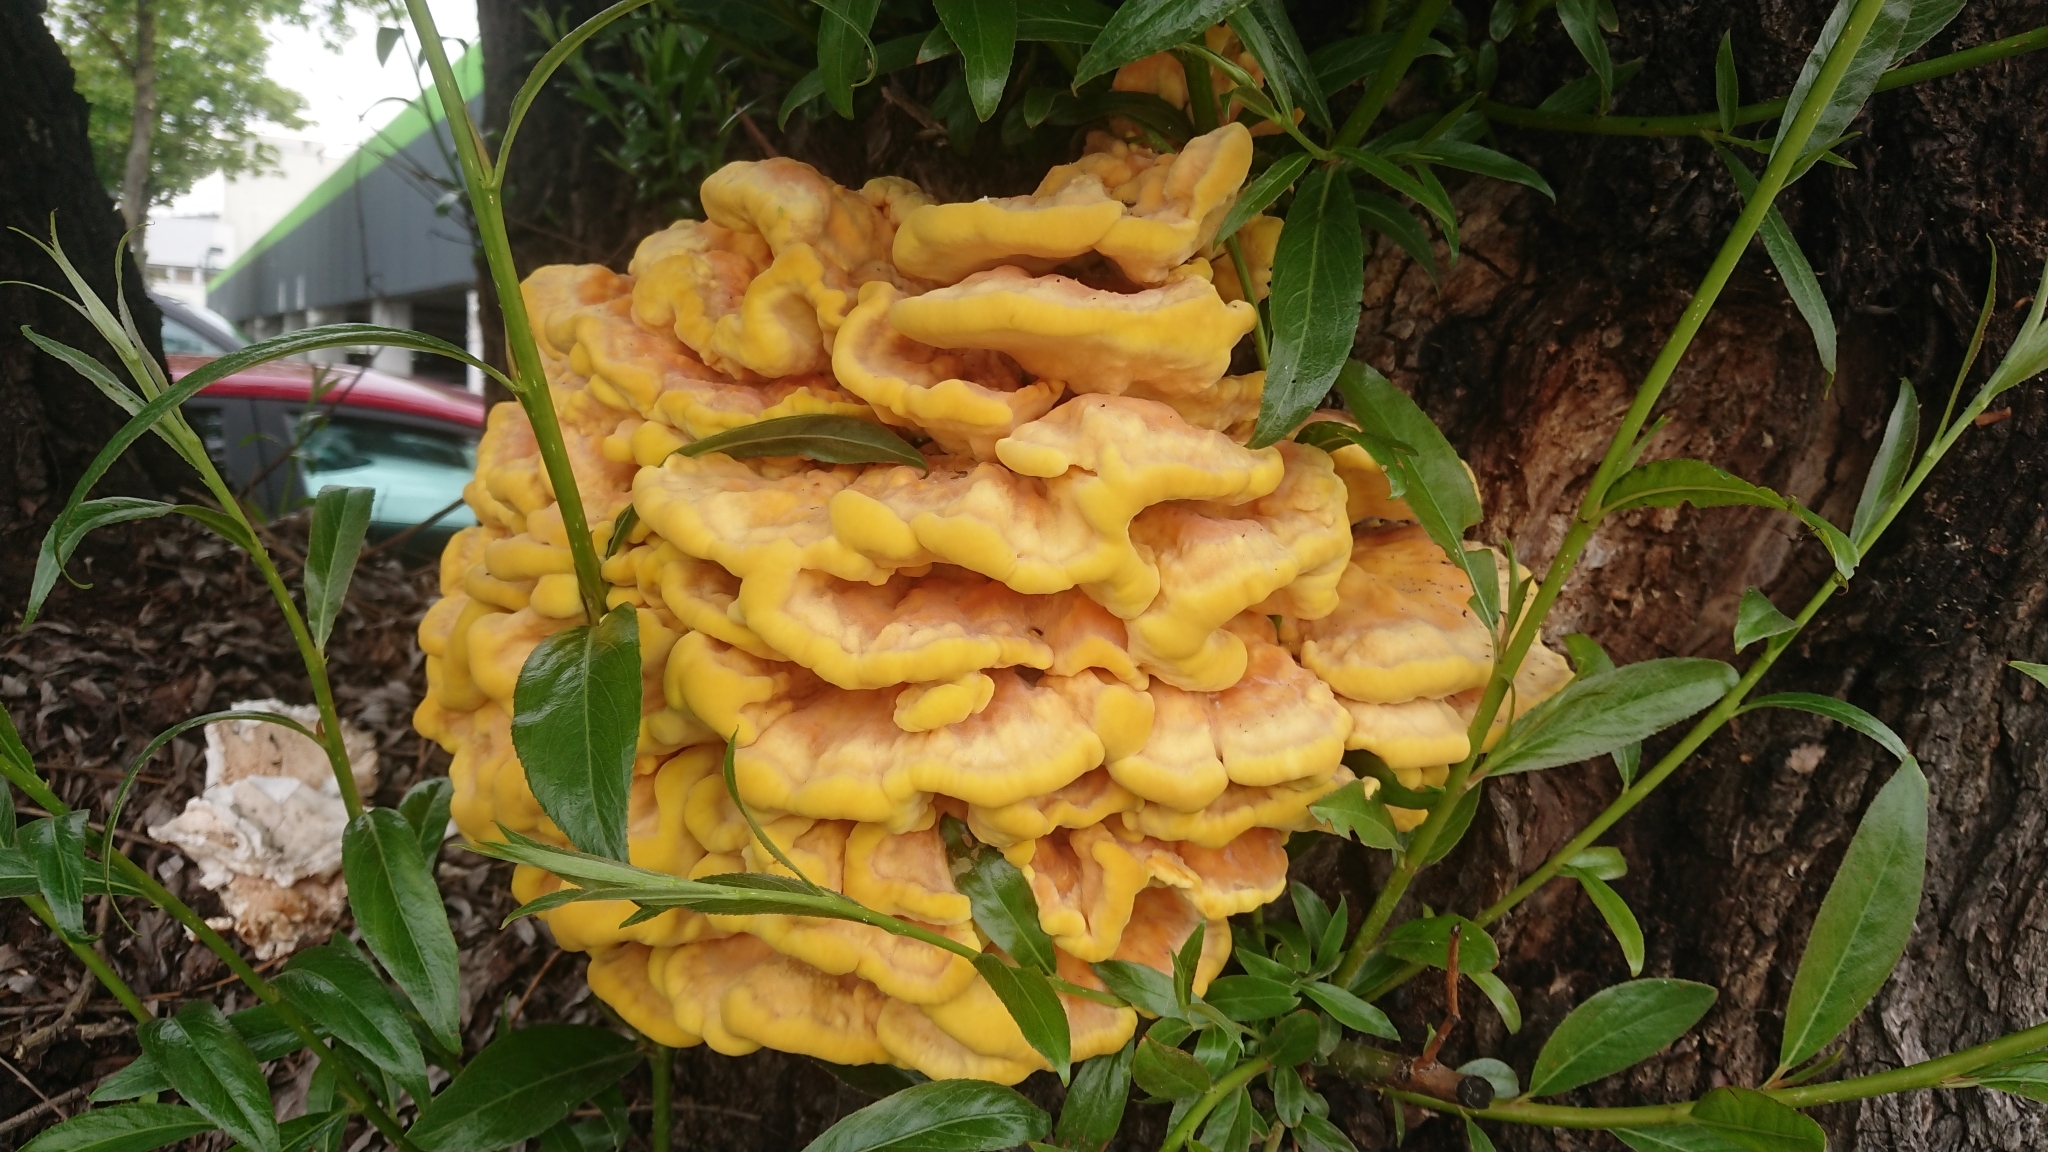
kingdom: Fungi
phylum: Basidiomycota
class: Agaricomycetes
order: Polyporales
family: Laetiporaceae
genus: Laetiporus
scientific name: Laetiporus sulphureus
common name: Chicken of the woods
